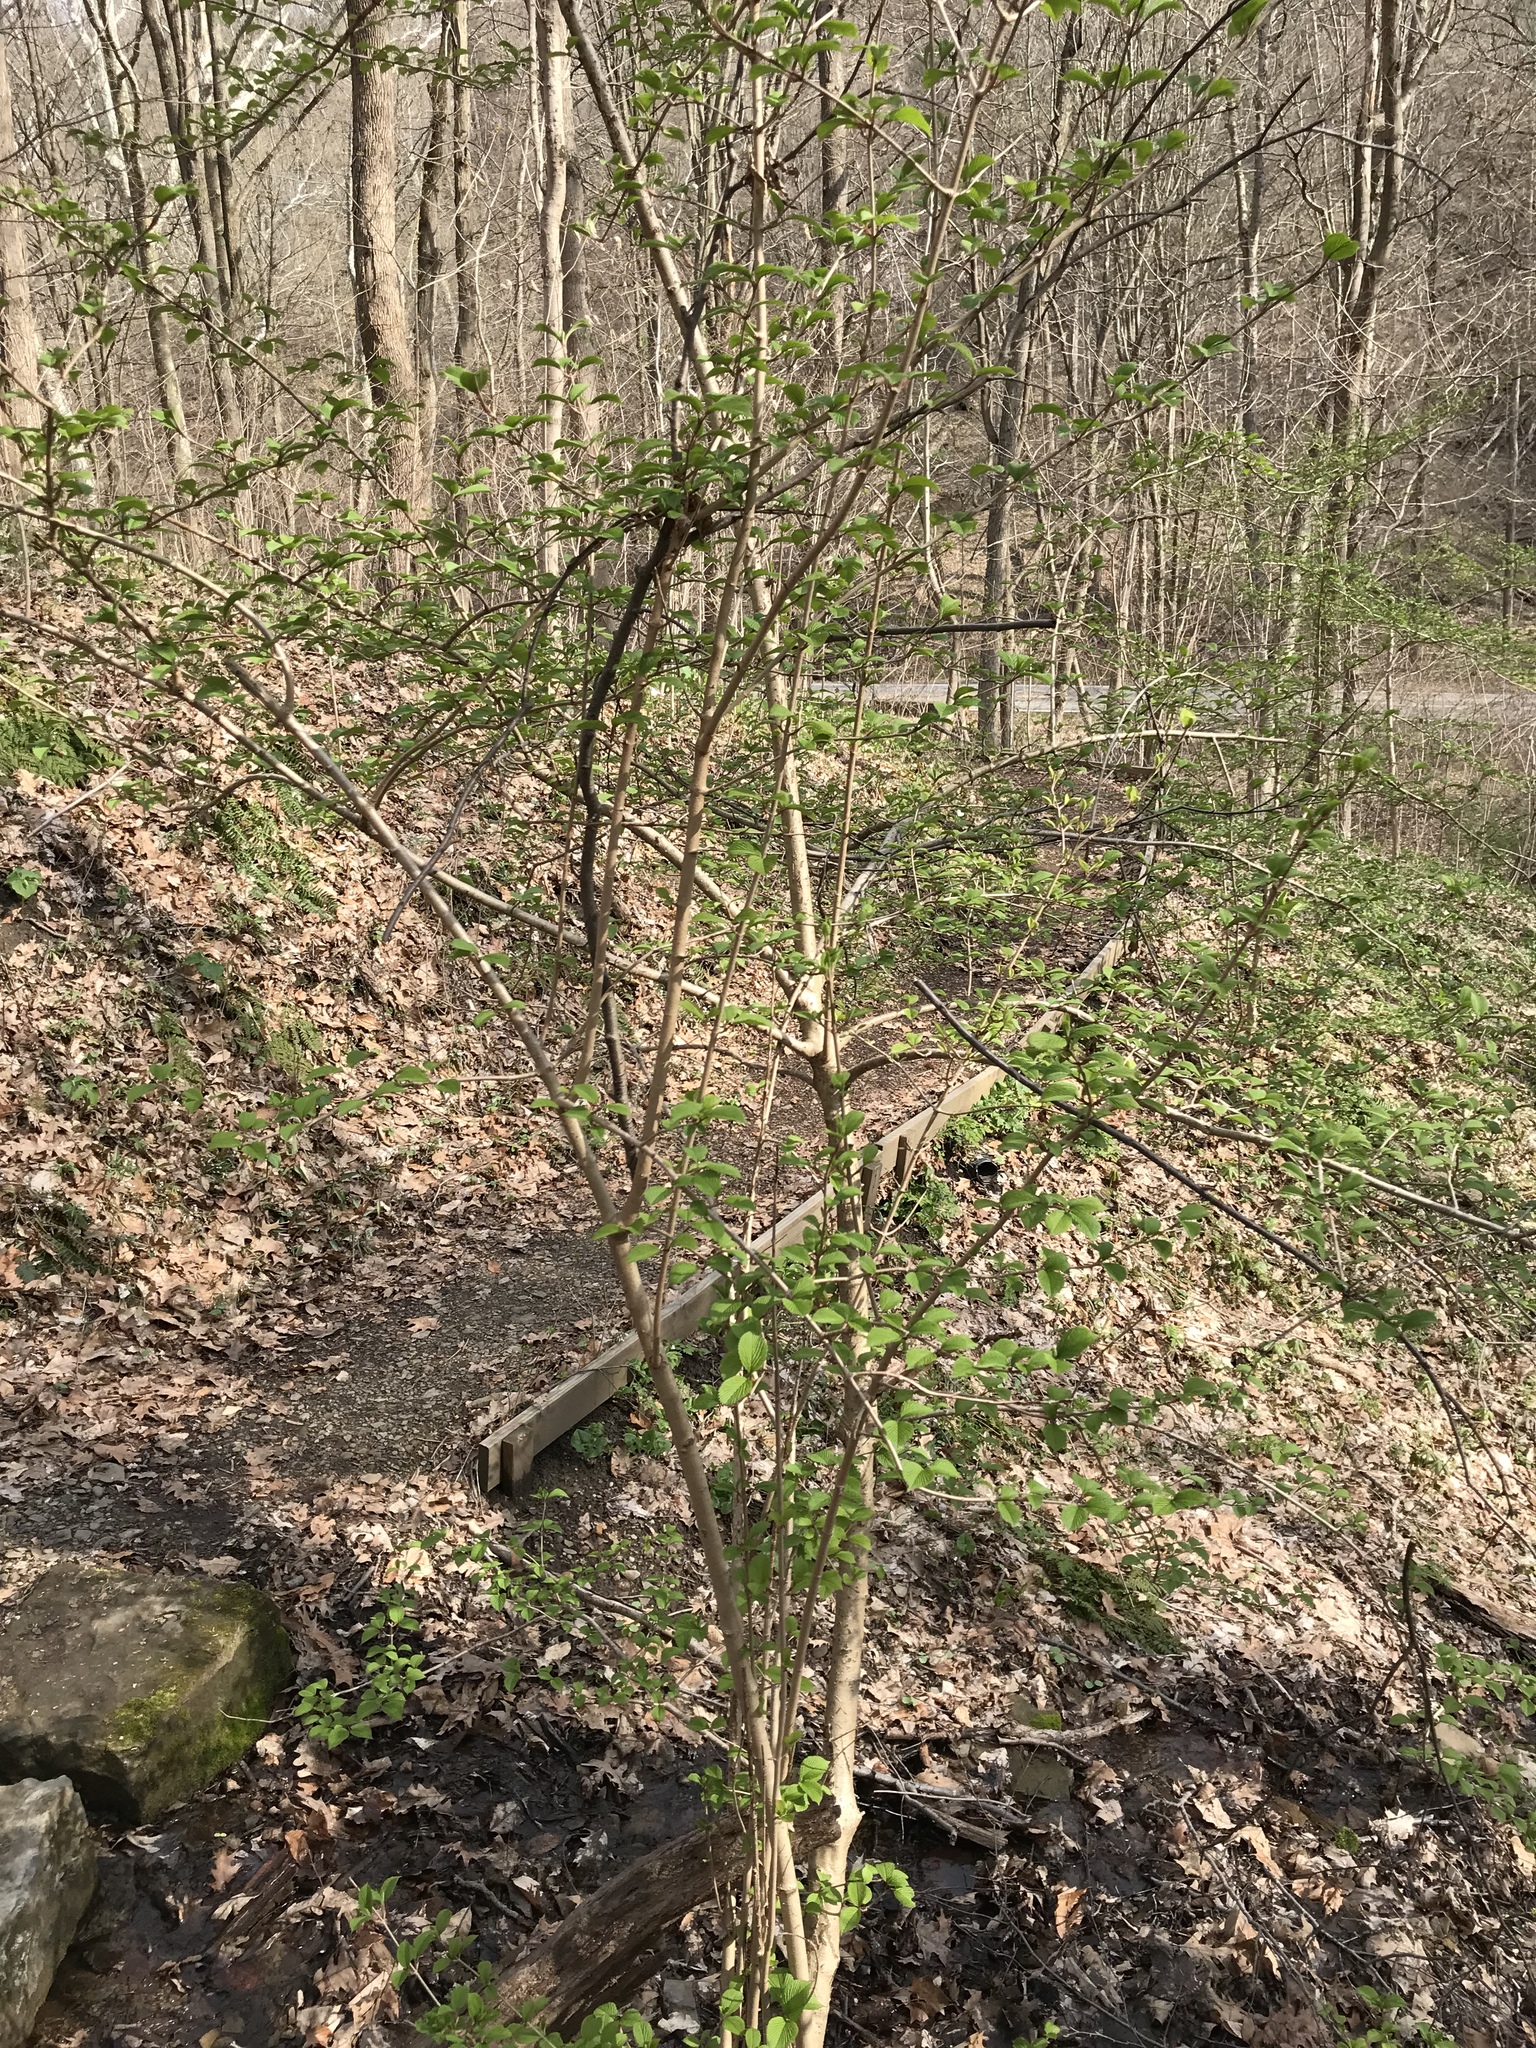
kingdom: Plantae
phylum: Tracheophyta
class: Magnoliopsida
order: Dipsacales
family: Viburnaceae
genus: Viburnum
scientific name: Viburnum plicatum
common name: Japanese snowball
